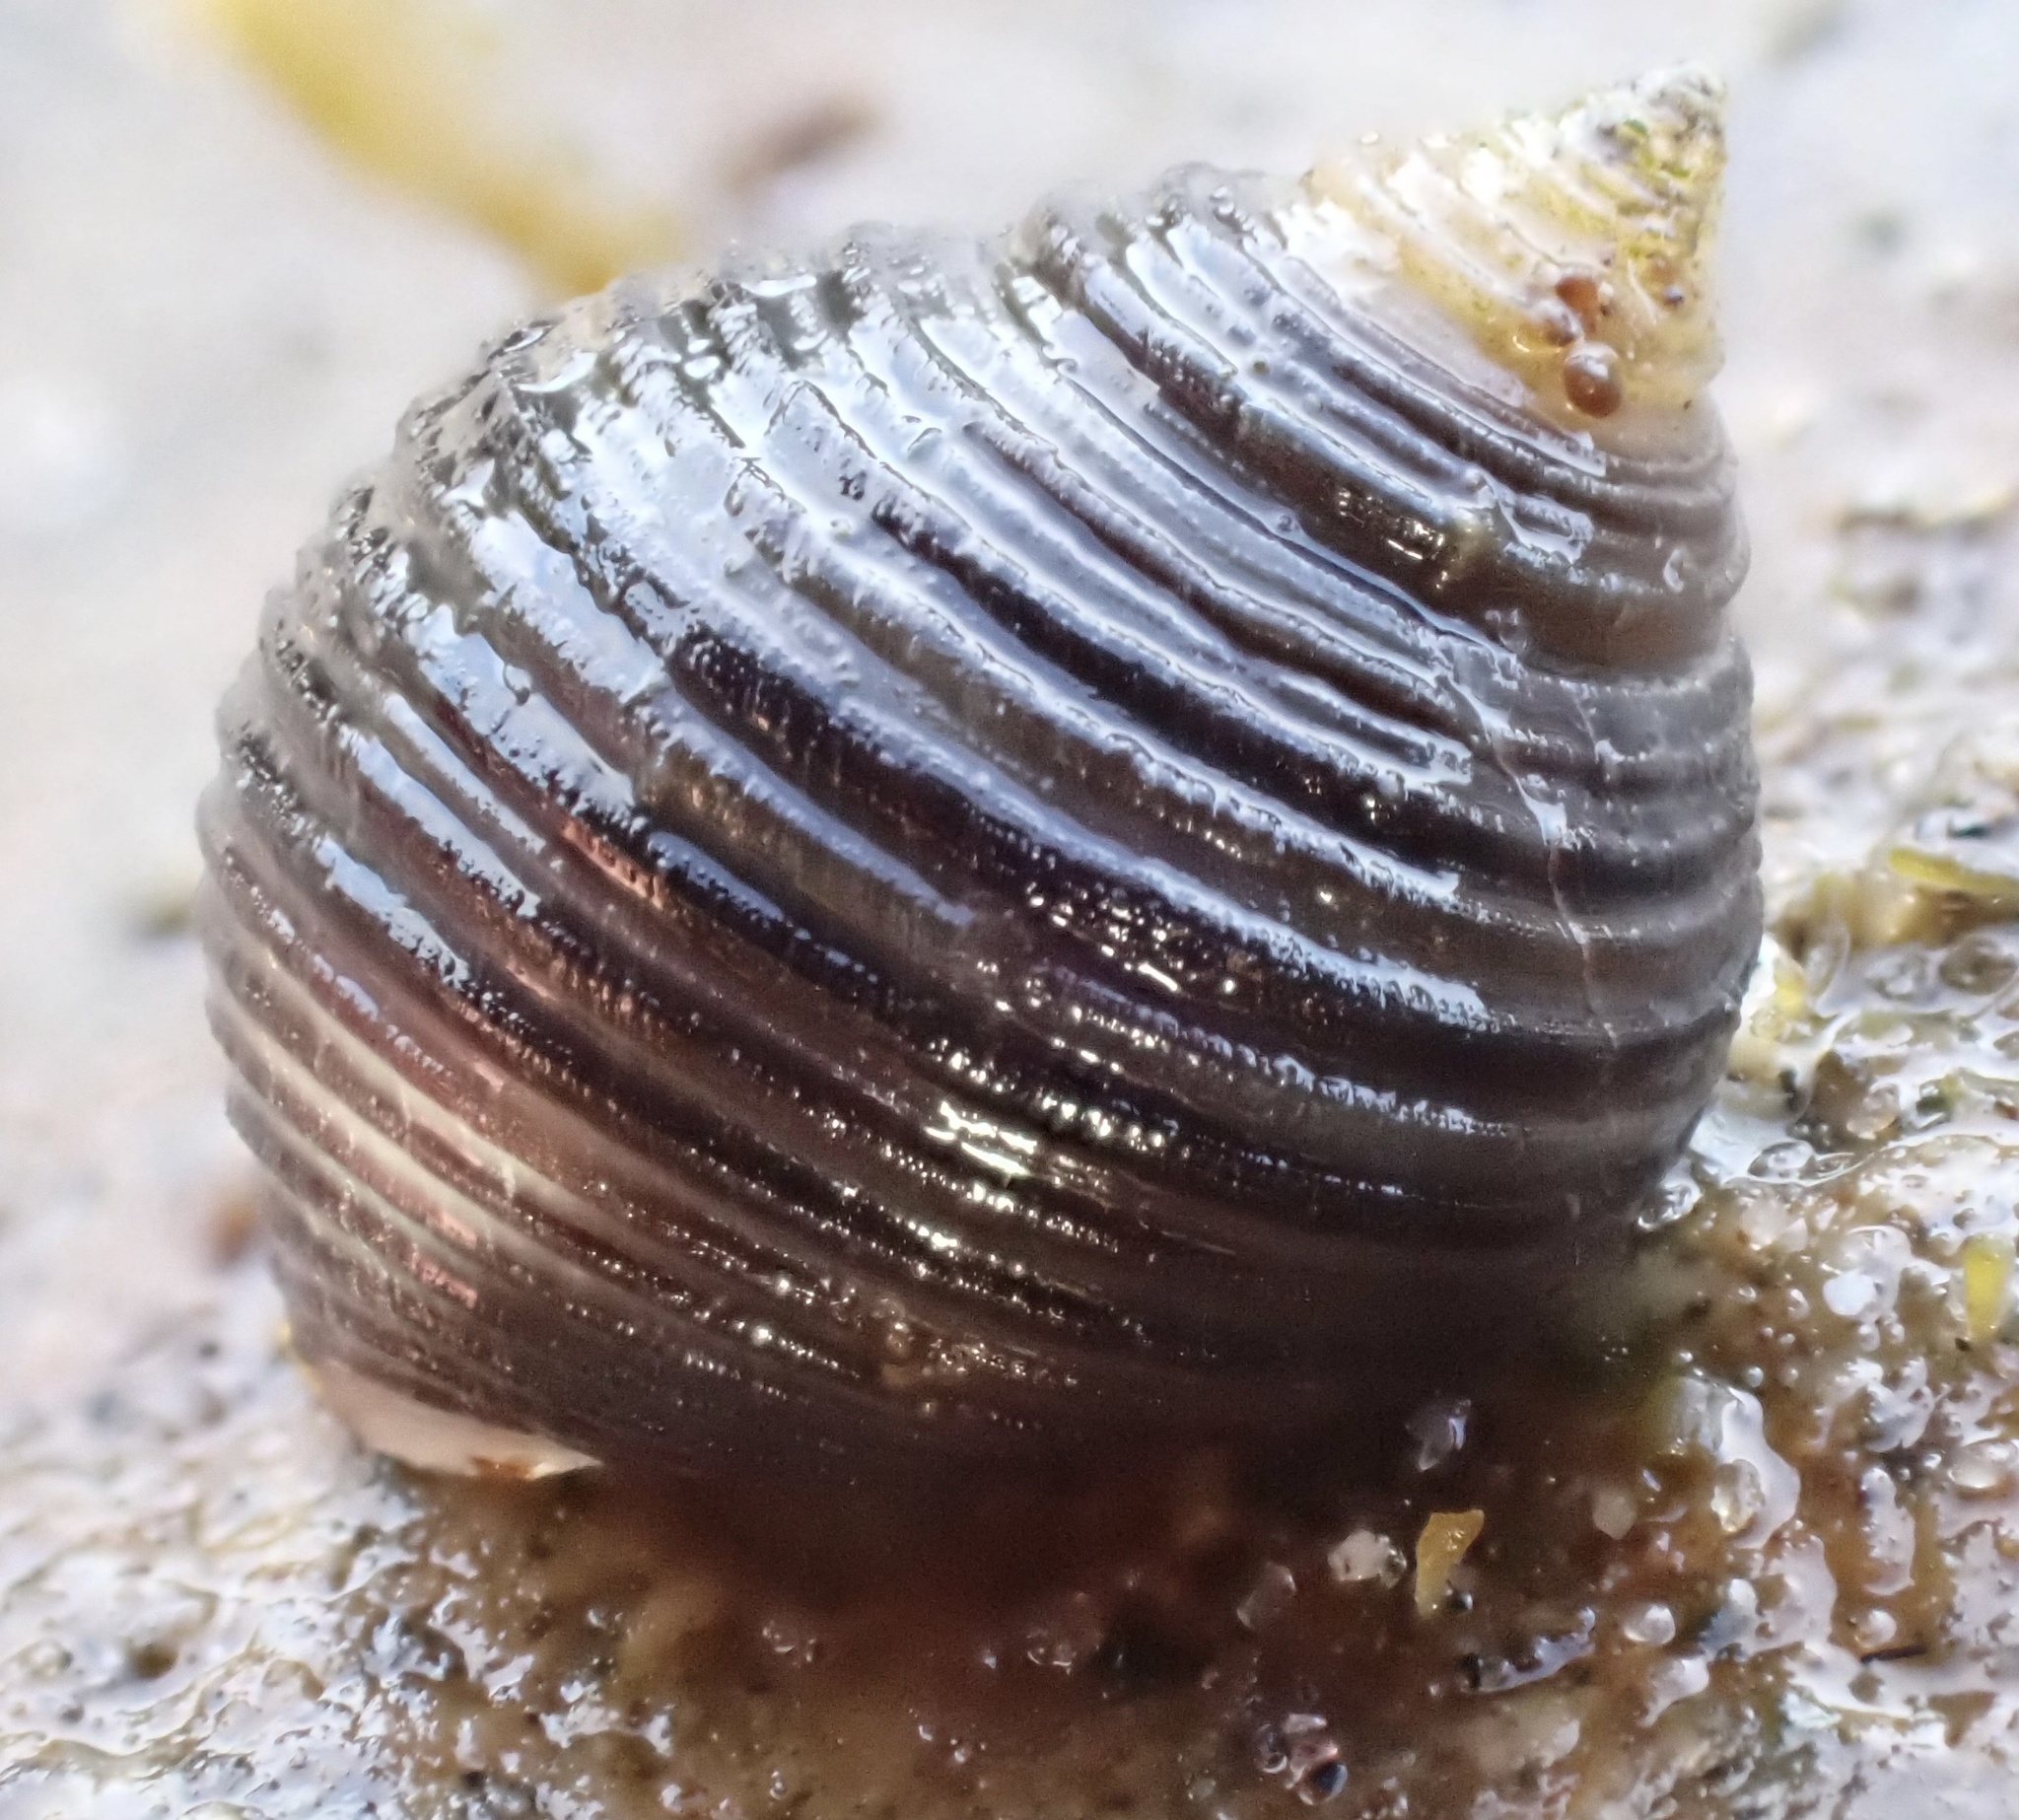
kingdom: Animalia
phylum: Mollusca
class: Gastropoda
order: Littorinimorpha
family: Littorinidae
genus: Littorina
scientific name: Littorina littorea
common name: Common periwinkle
